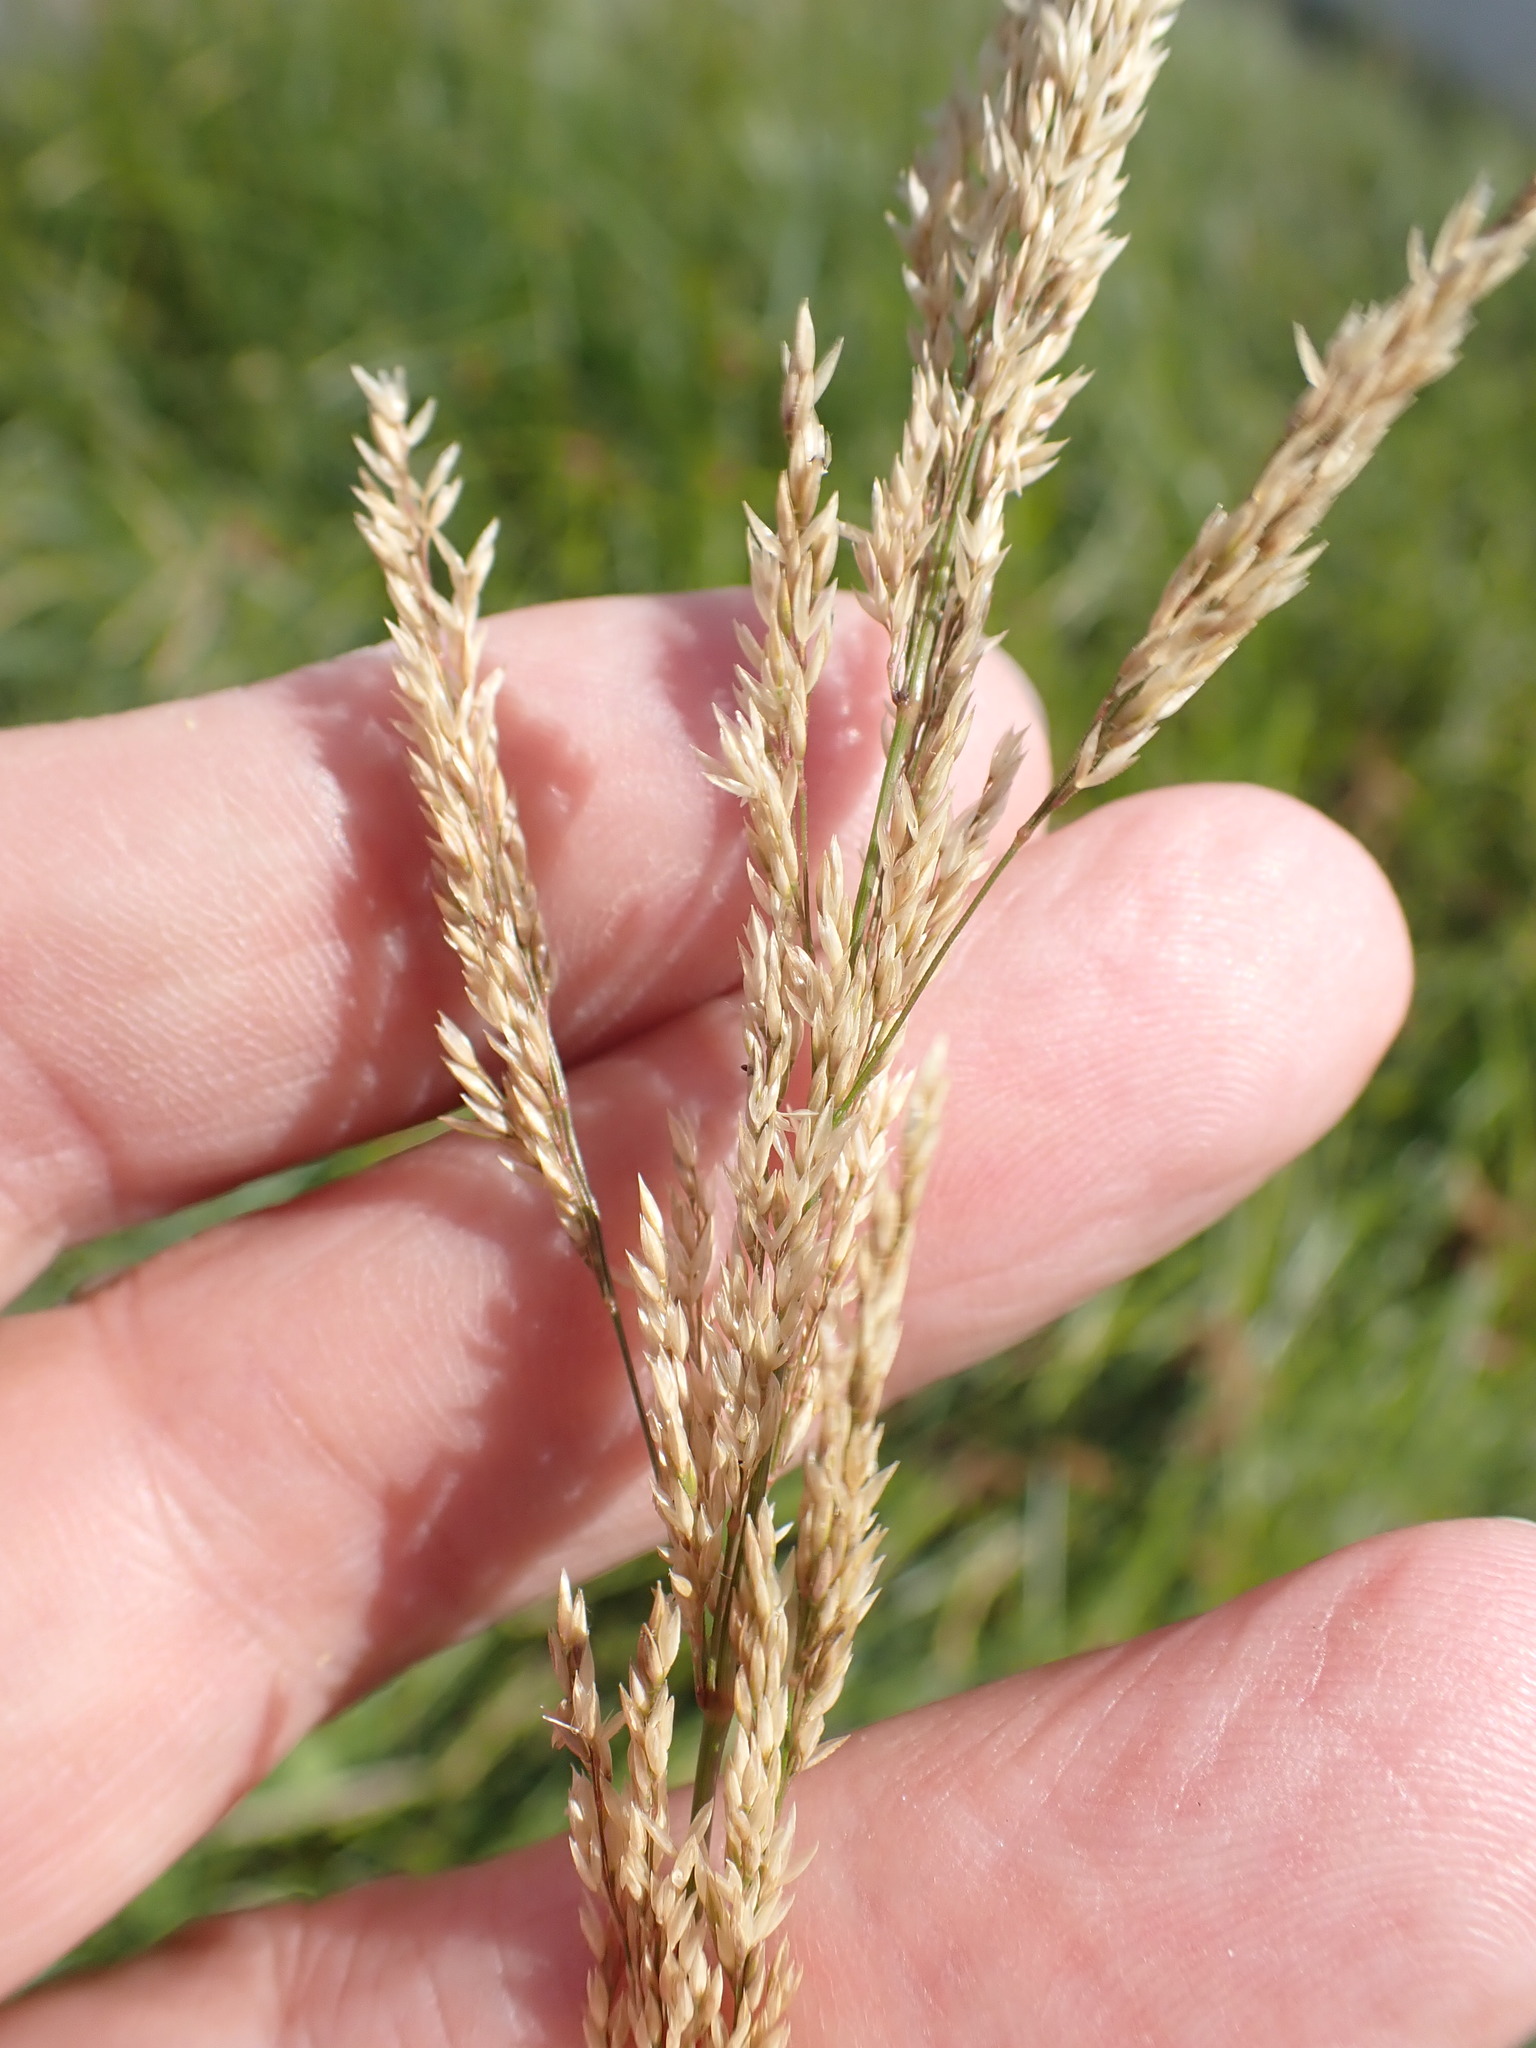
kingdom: Plantae
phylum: Tracheophyta
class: Liliopsida
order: Poales
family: Poaceae
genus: Agrostis
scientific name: Agrostis stolonifera
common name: Creeping bentgrass
